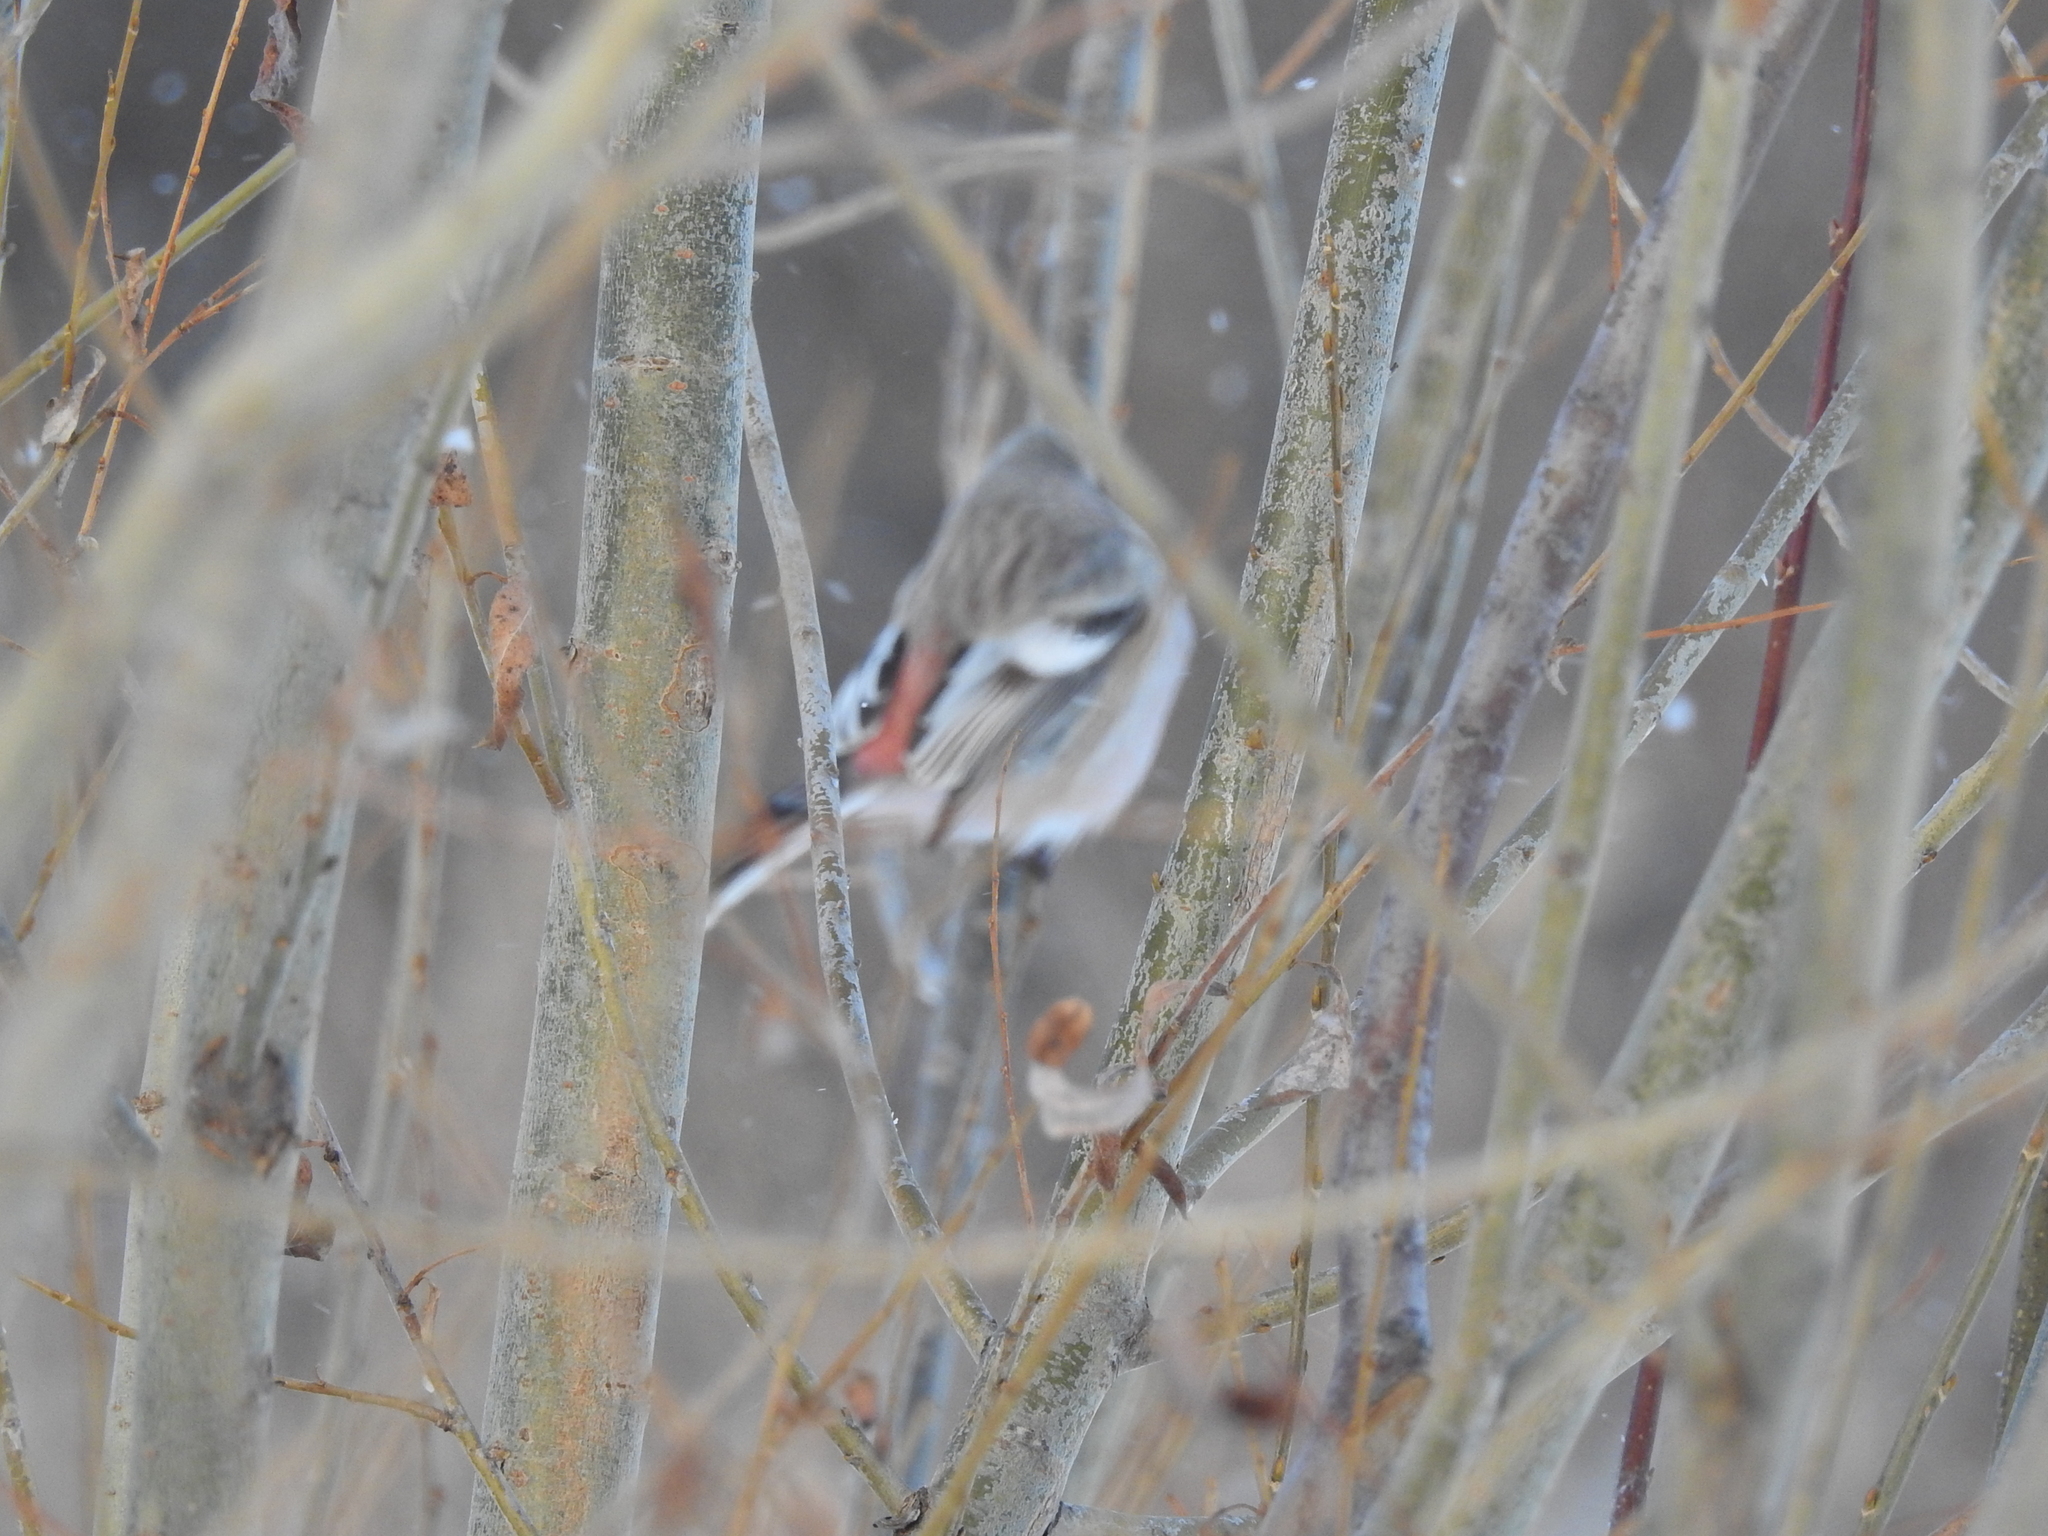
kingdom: Animalia
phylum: Chordata
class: Aves
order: Passeriformes
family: Fringillidae
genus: Carpodacus
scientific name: Carpodacus sibiricus
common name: Long-tailed rosefinch
